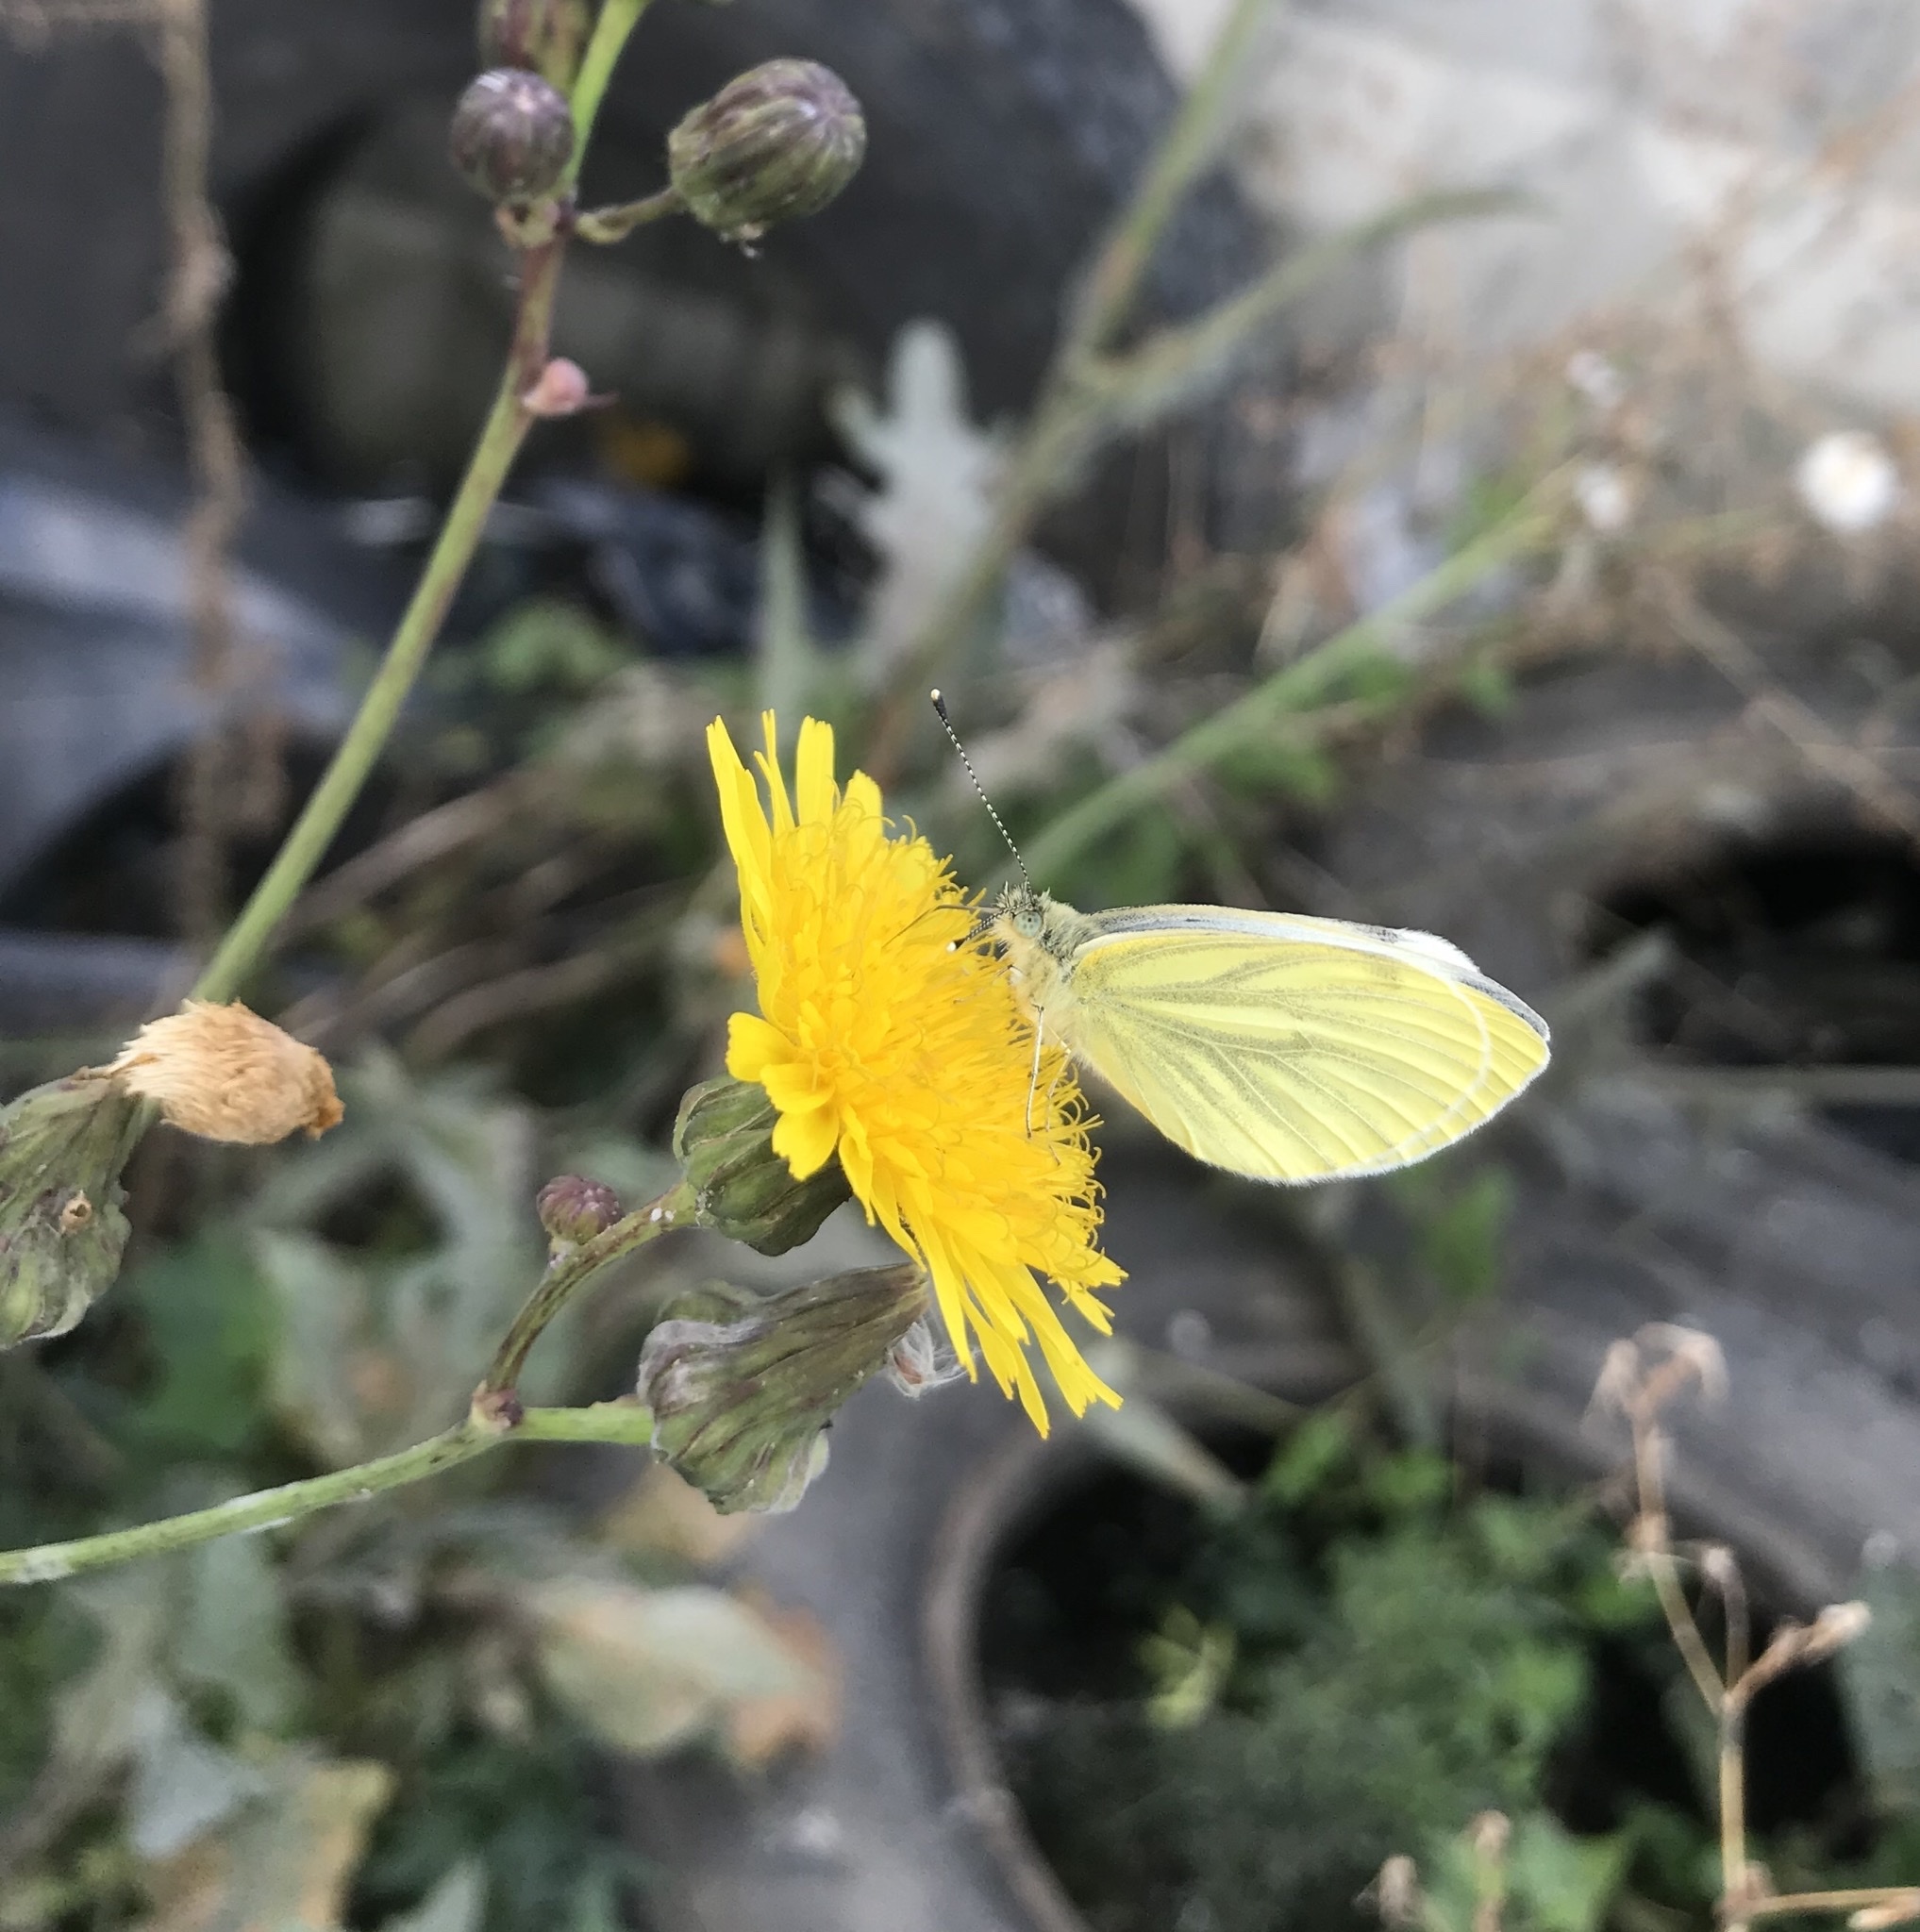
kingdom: Animalia
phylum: Arthropoda
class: Insecta
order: Lepidoptera
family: Pieridae
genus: Pieris
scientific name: Pieris napi
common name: Green-veined white
